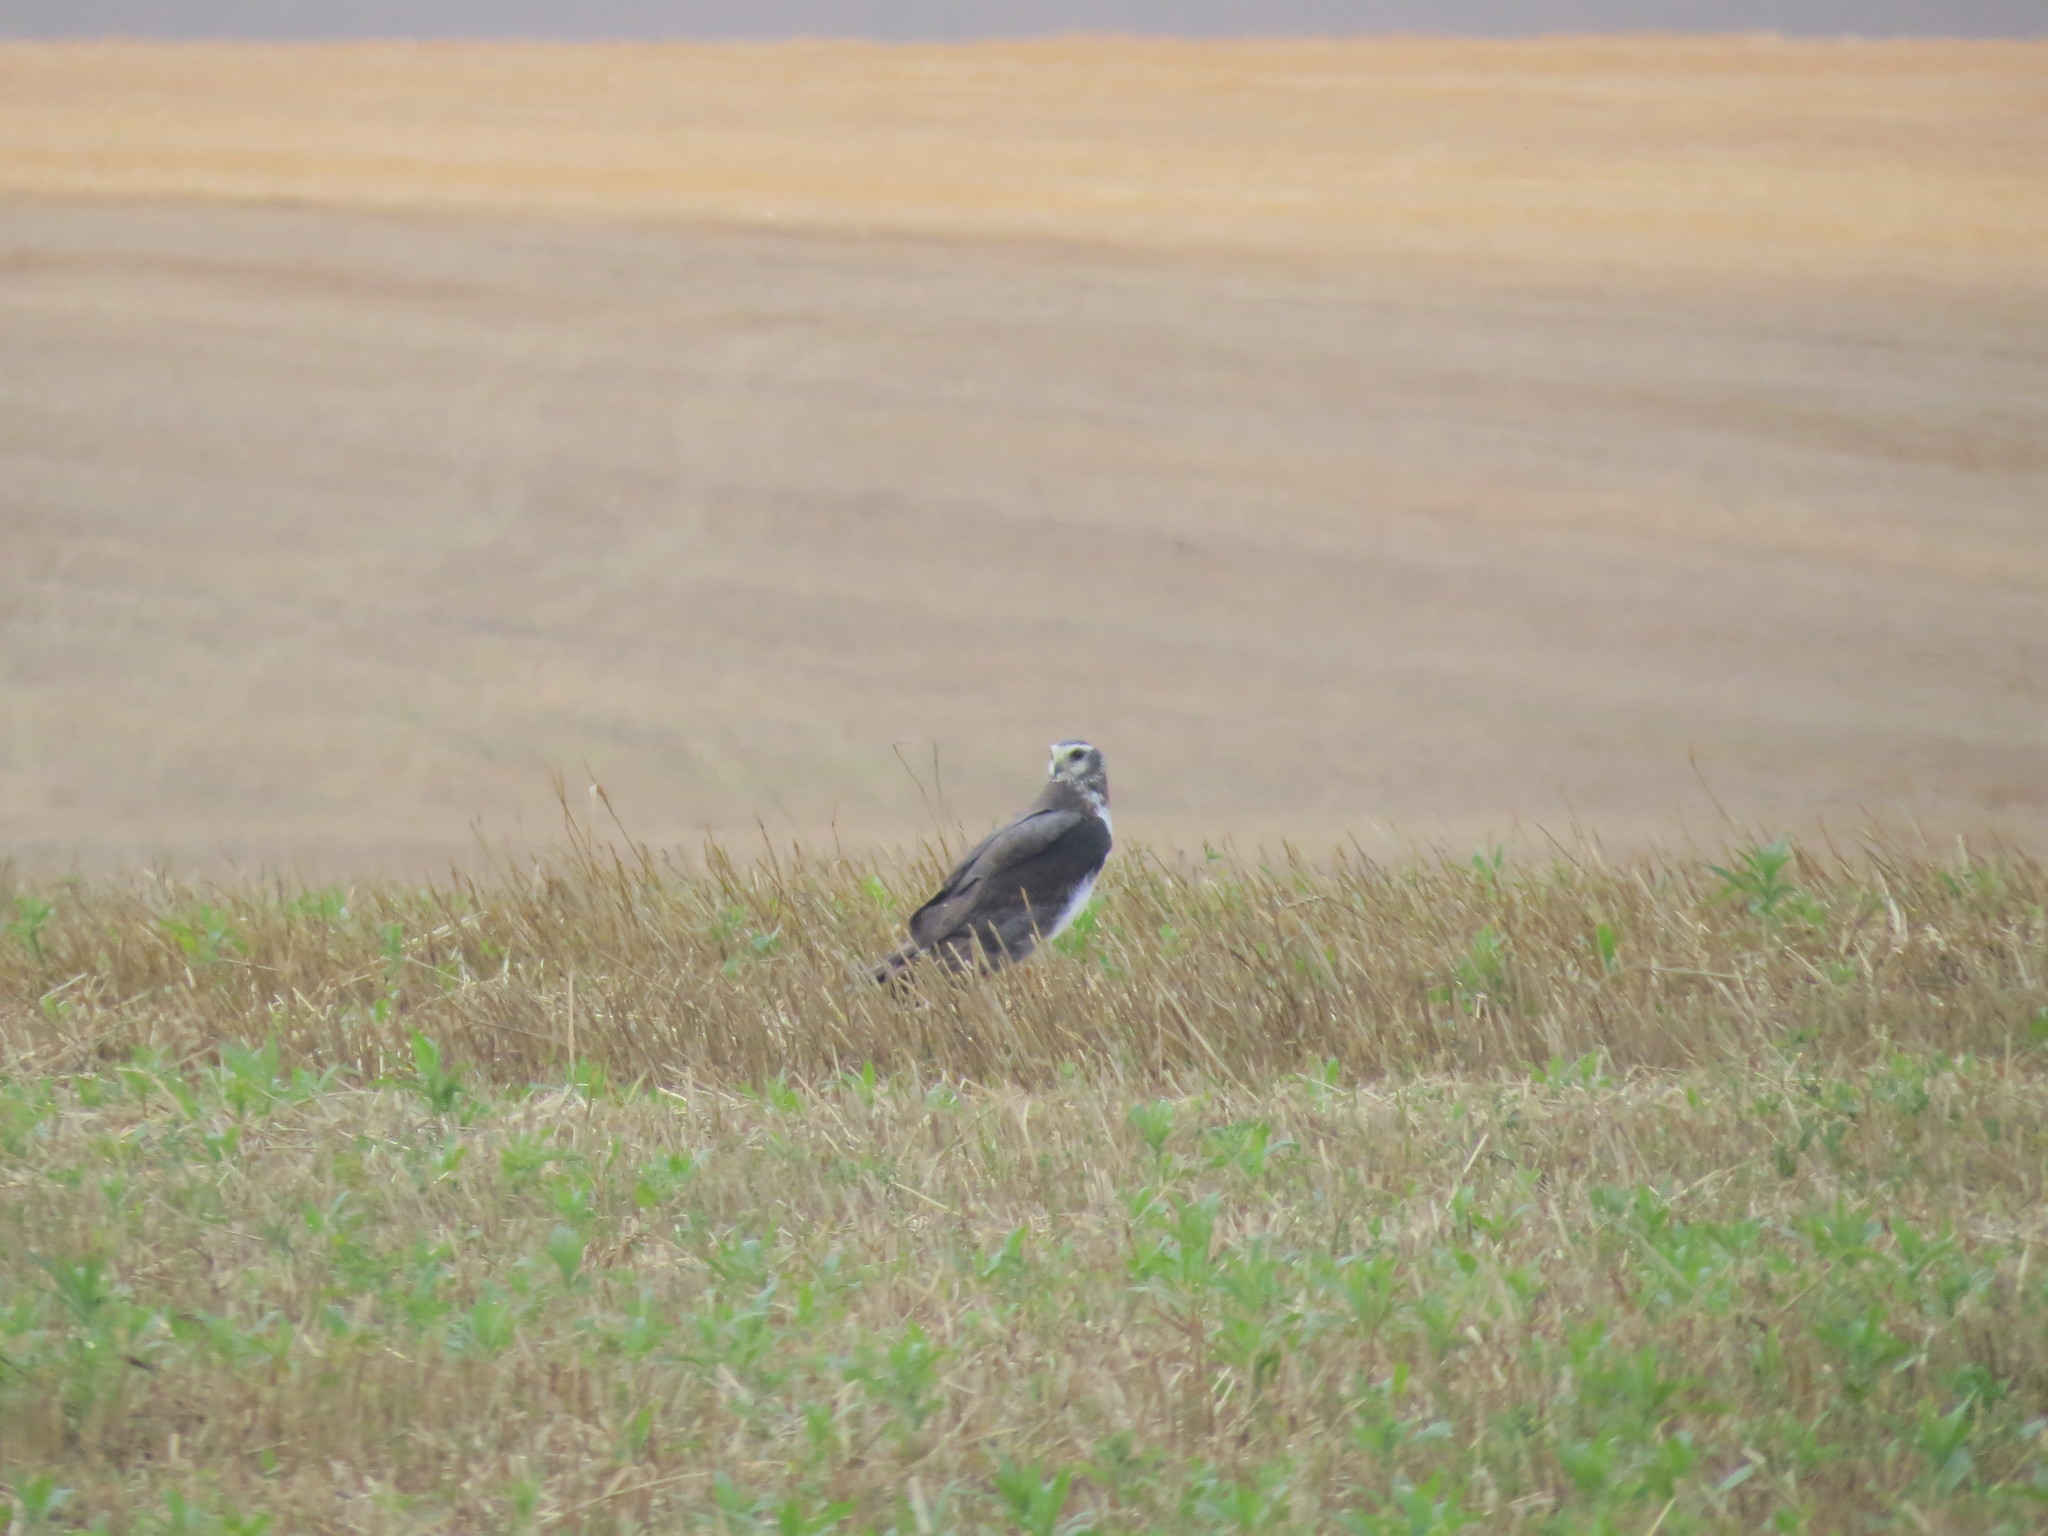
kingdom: Animalia
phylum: Chordata
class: Aves
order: Accipitriformes
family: Accipitridae
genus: Circus
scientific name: Circus buffoni
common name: Long-winged harrier
